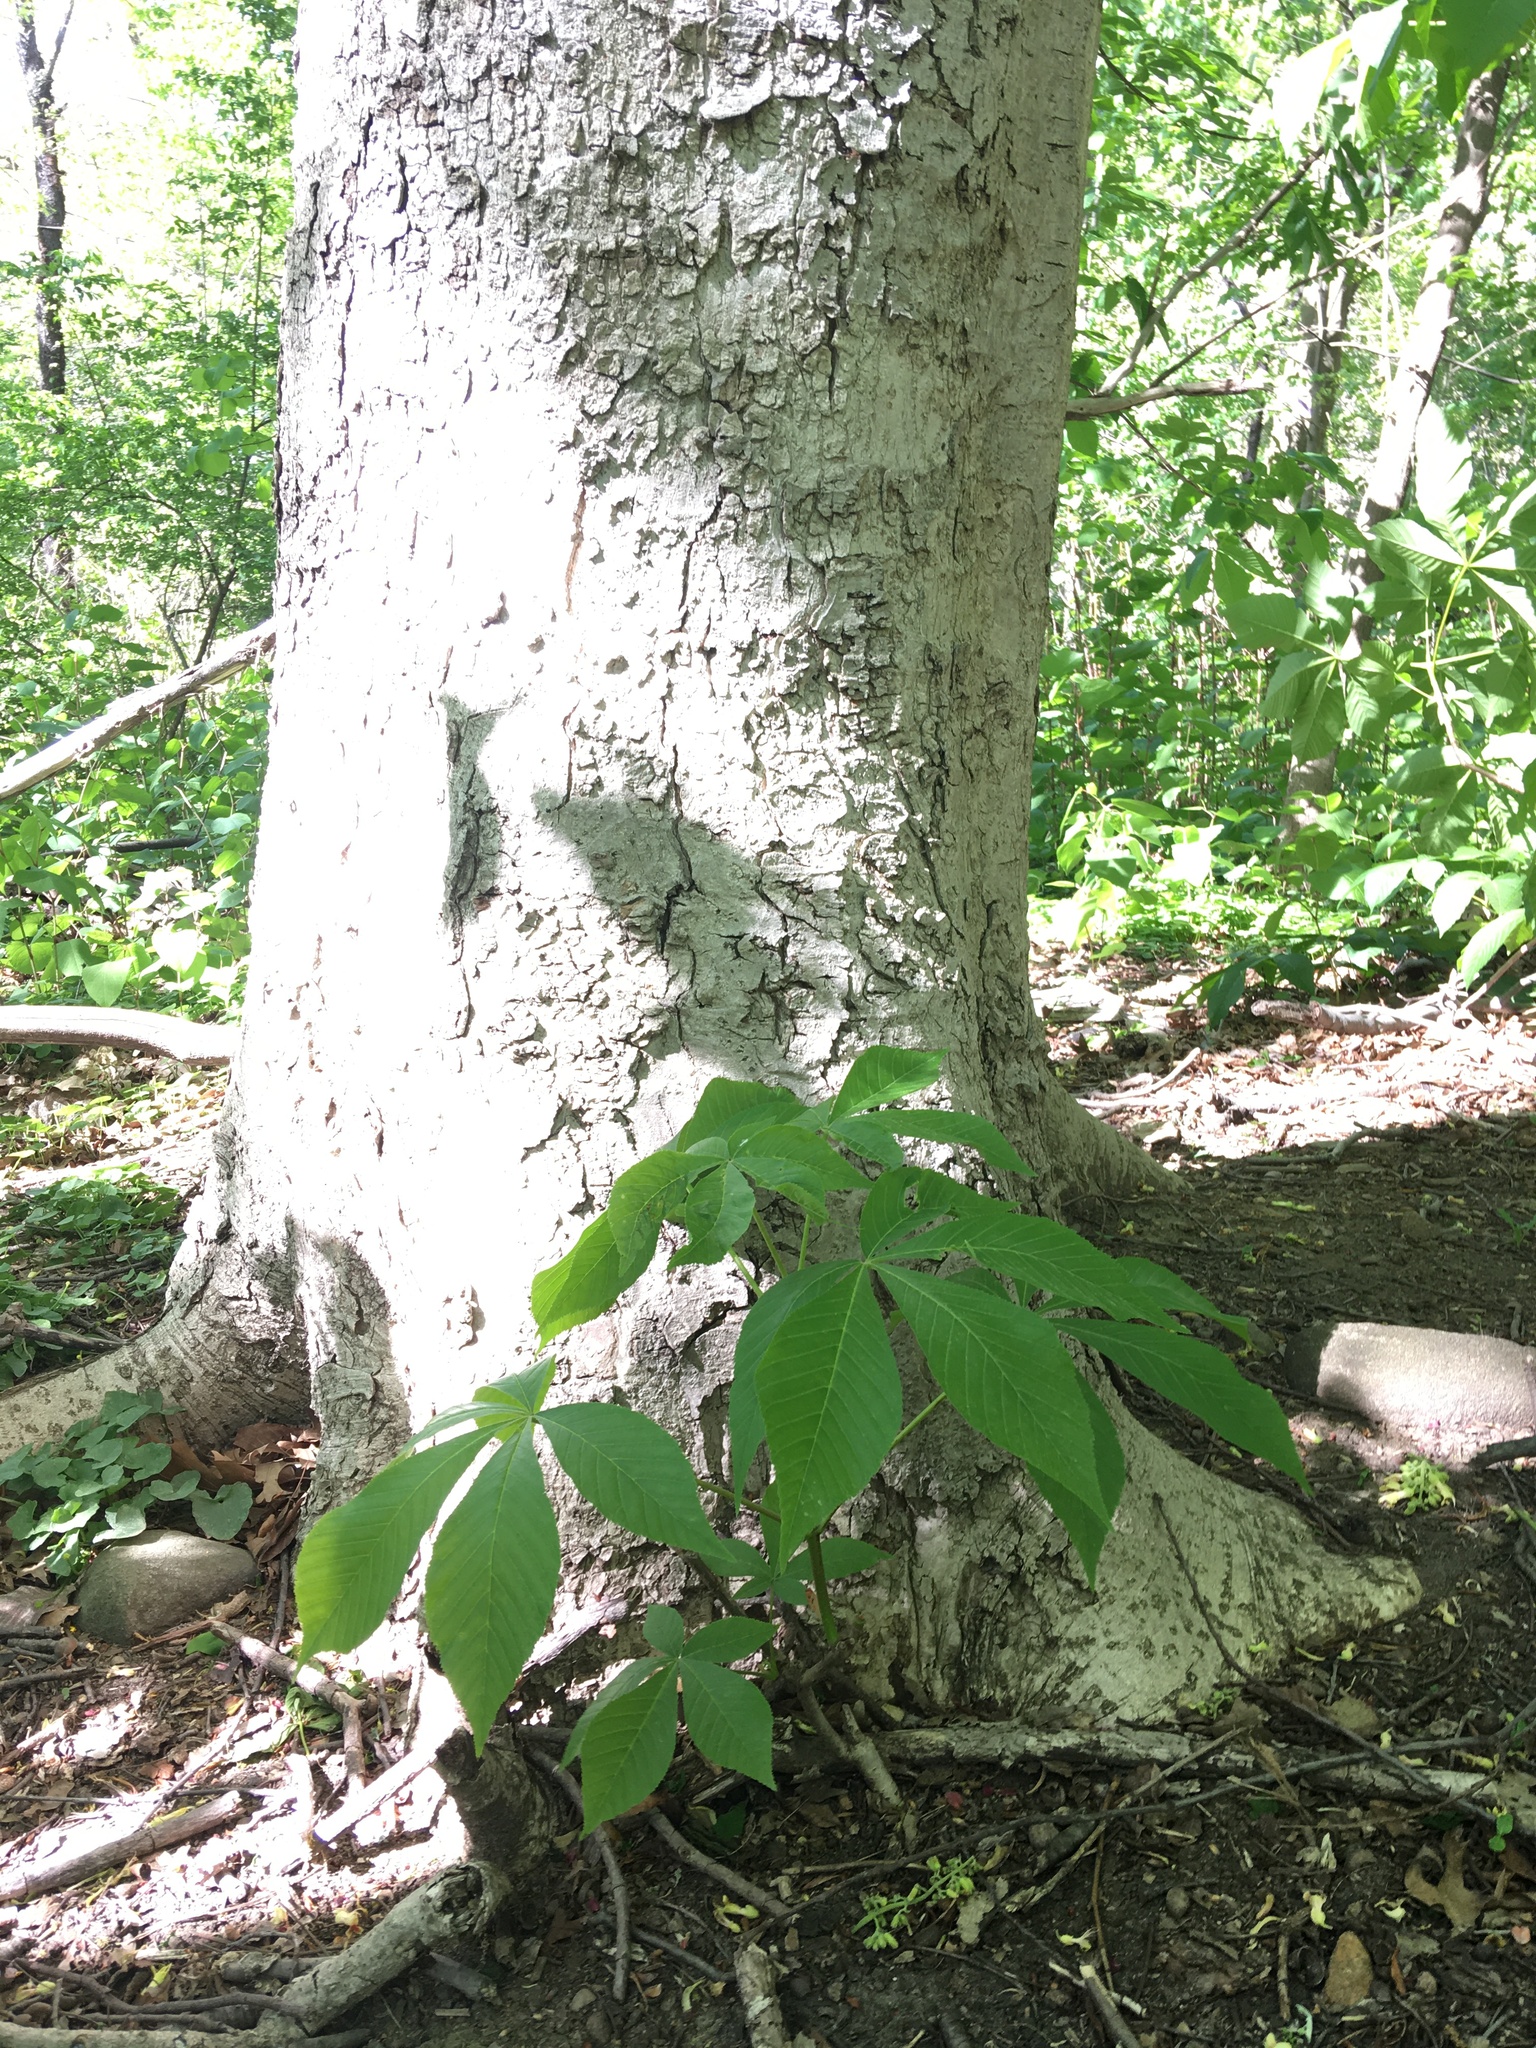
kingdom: Plantae
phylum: Tracheophyta
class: Magnoliopsida
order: Sapindales
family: Sapindaceae
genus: Aesculus
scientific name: Aesculus flava
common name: Yellow buckeye
